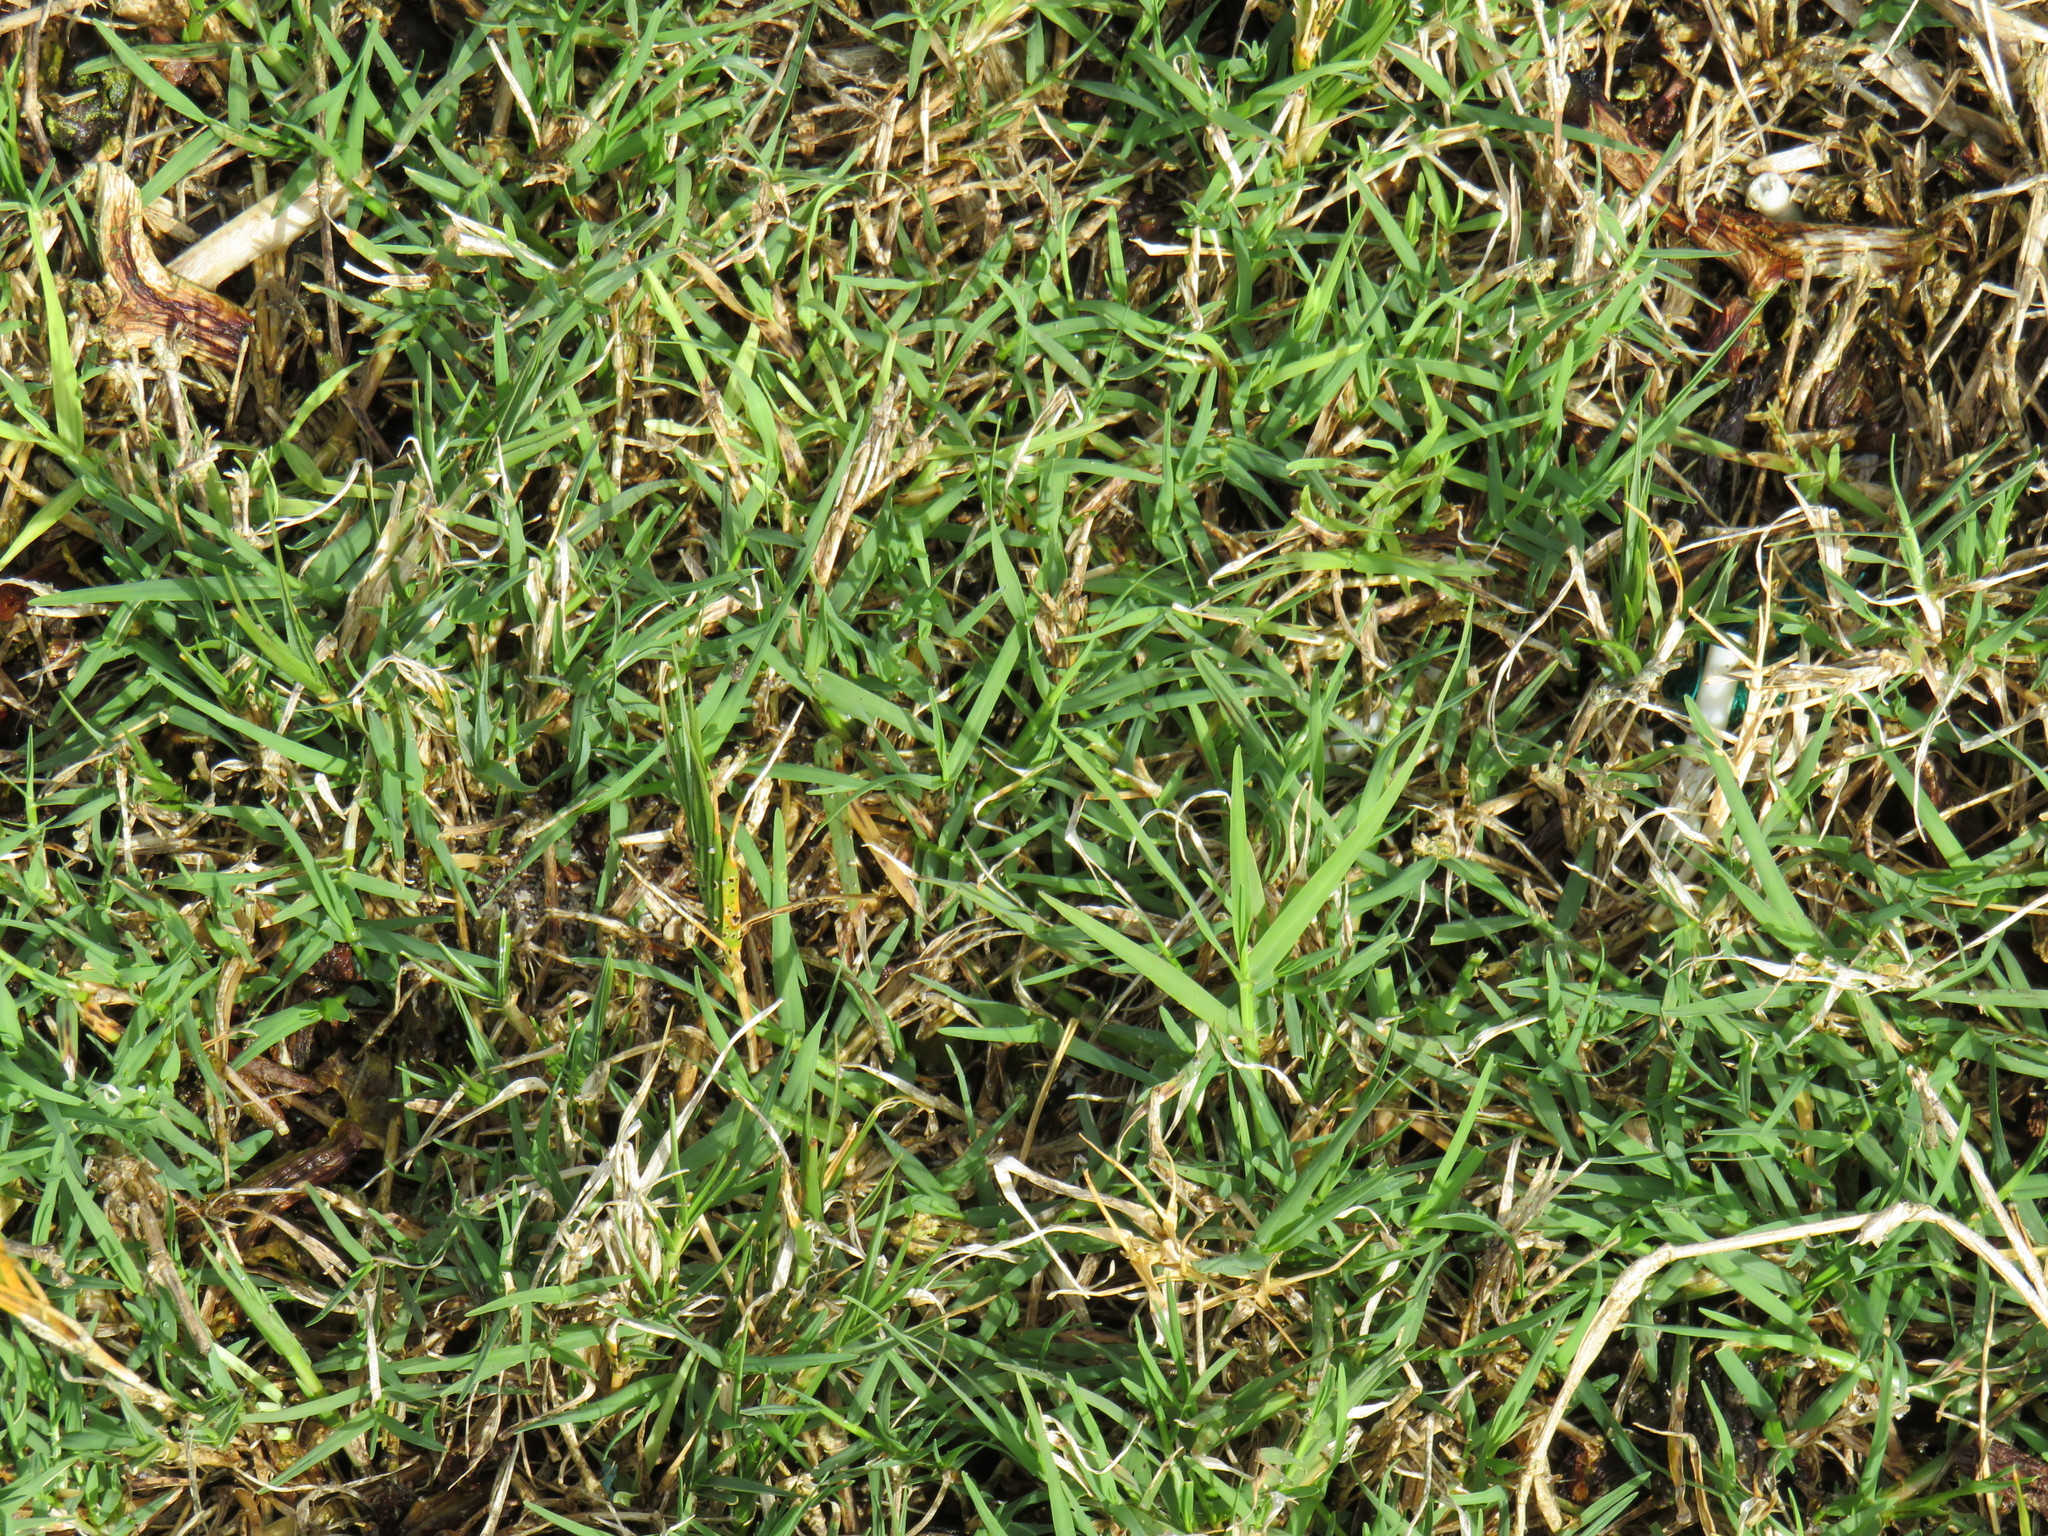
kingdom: Plantae
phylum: Tracheophyta
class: Liliopsida
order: Poales
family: Poaceae
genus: Cynodon
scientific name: Cynodon dactylon
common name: Bermuda grass
